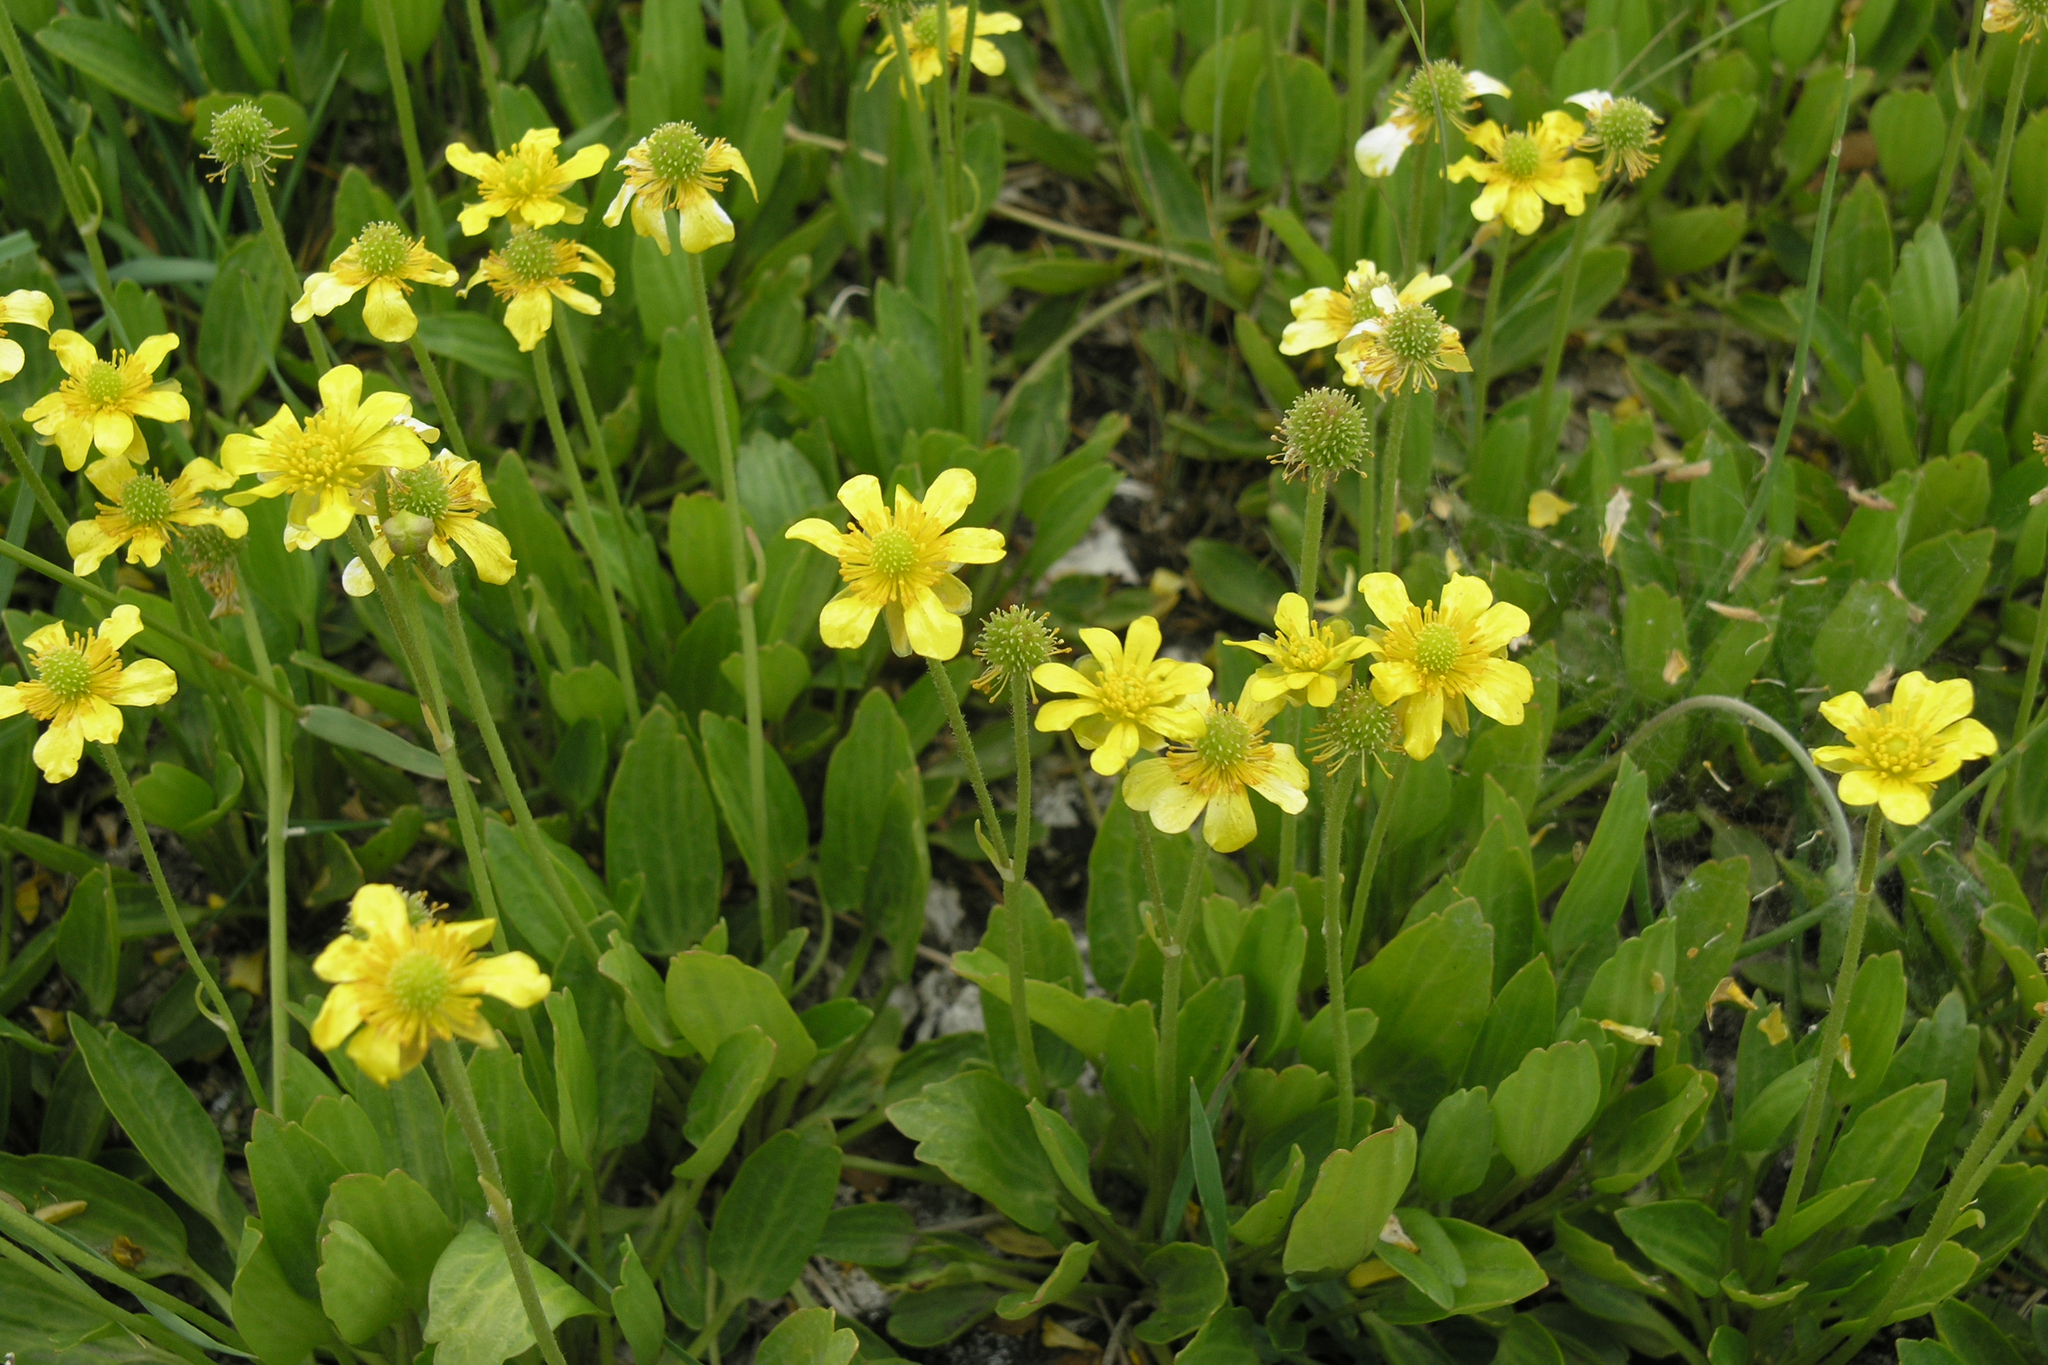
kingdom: Plantae
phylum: Tracheophyta
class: Magnoliopsida
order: Ranunculales
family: Ranunculaceae
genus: Halerpestes
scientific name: Halerpestes ruthenica
